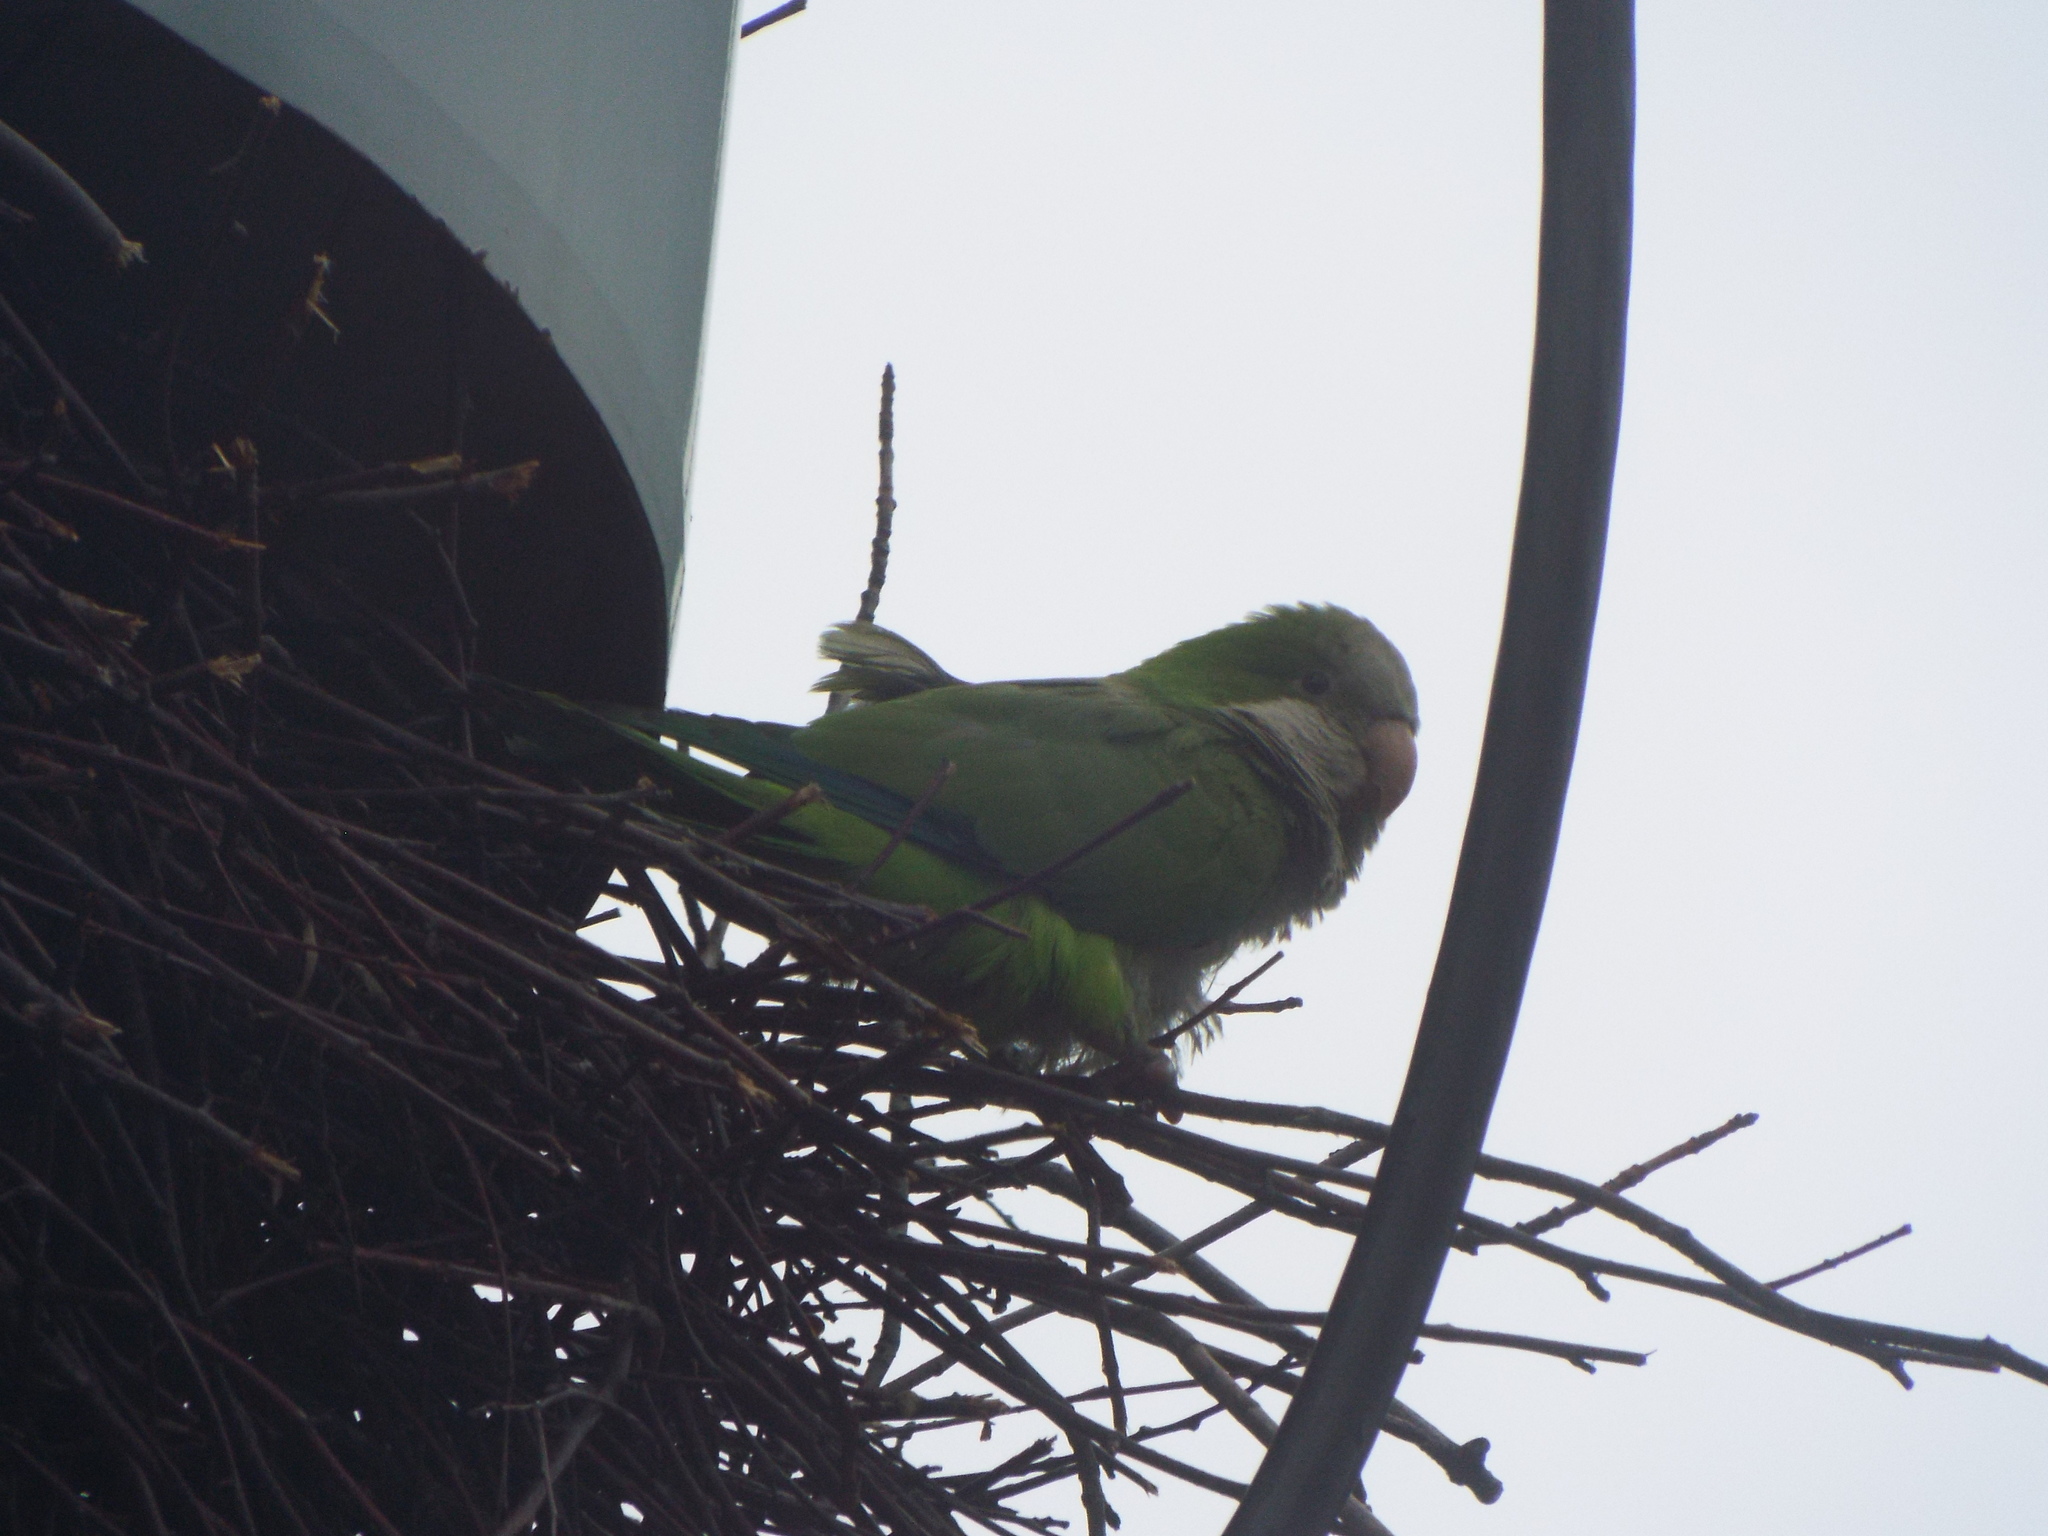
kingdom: Animalia
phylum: Chordata
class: Aves
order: Psittaciformes
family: Psittacidae
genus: Myiopsitta
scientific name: Myiopsitta monachus
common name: Monk parakeet
